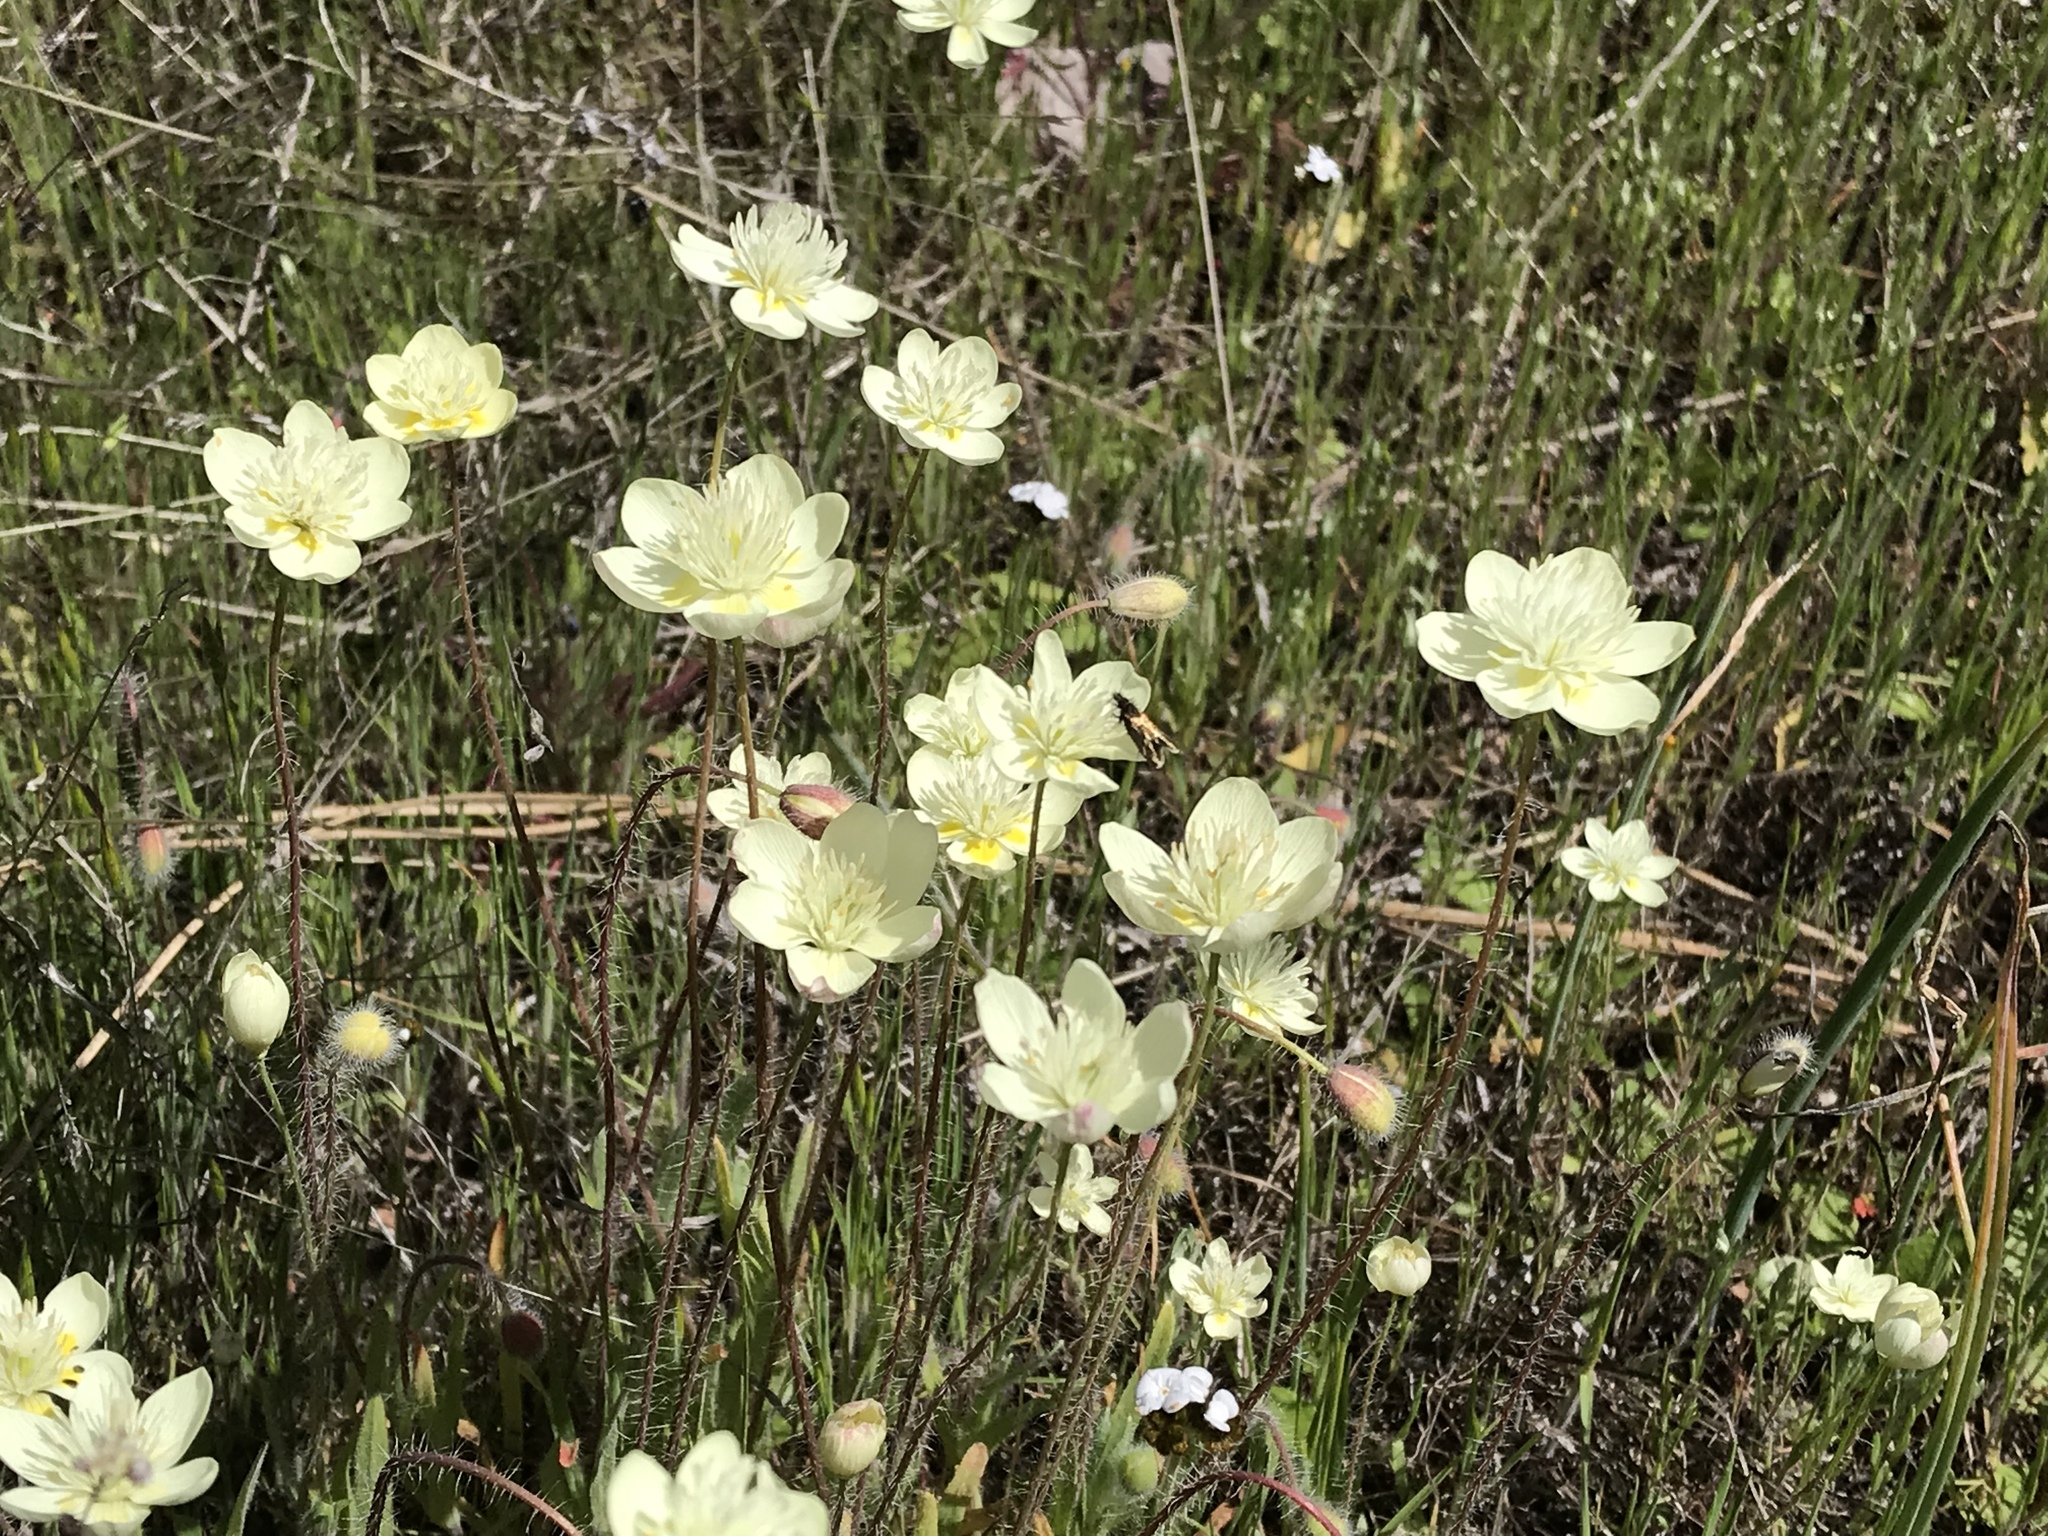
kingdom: Plantae
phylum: Tracheophyta
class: Magnoliopsida
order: Ranunculales
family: Papaveraceae
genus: Platystemon
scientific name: Platystemon californicus
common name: Cream-cups
